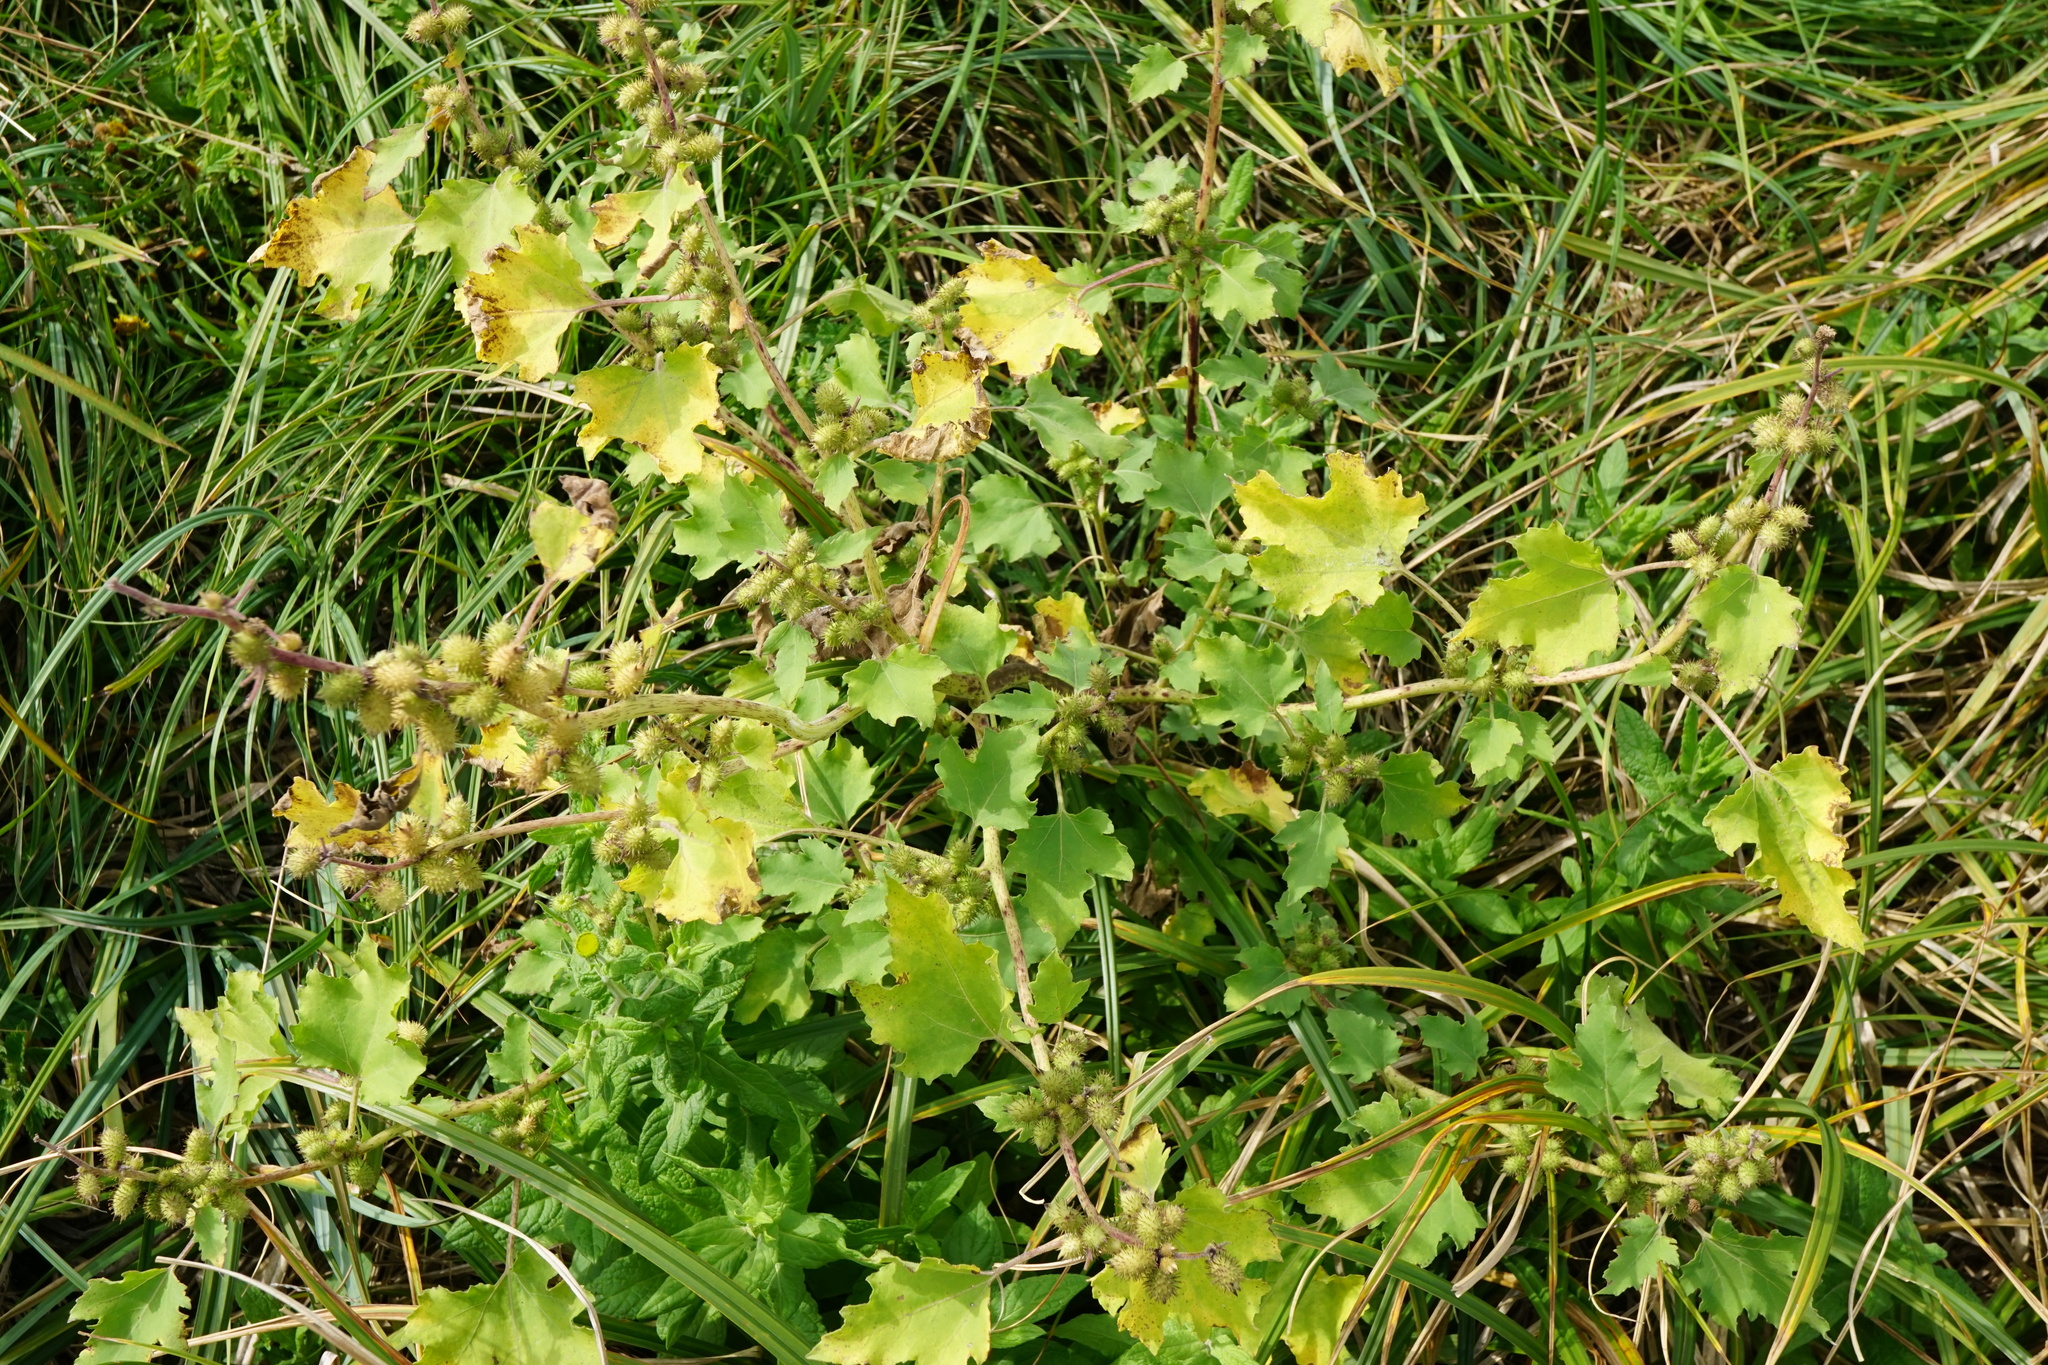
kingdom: Plantae
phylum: Tracheophyta
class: Magnoliopsida
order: Asterales
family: Asteraceae
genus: Xanthium
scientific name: Xanthium strumarium
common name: Rough cocklebur
